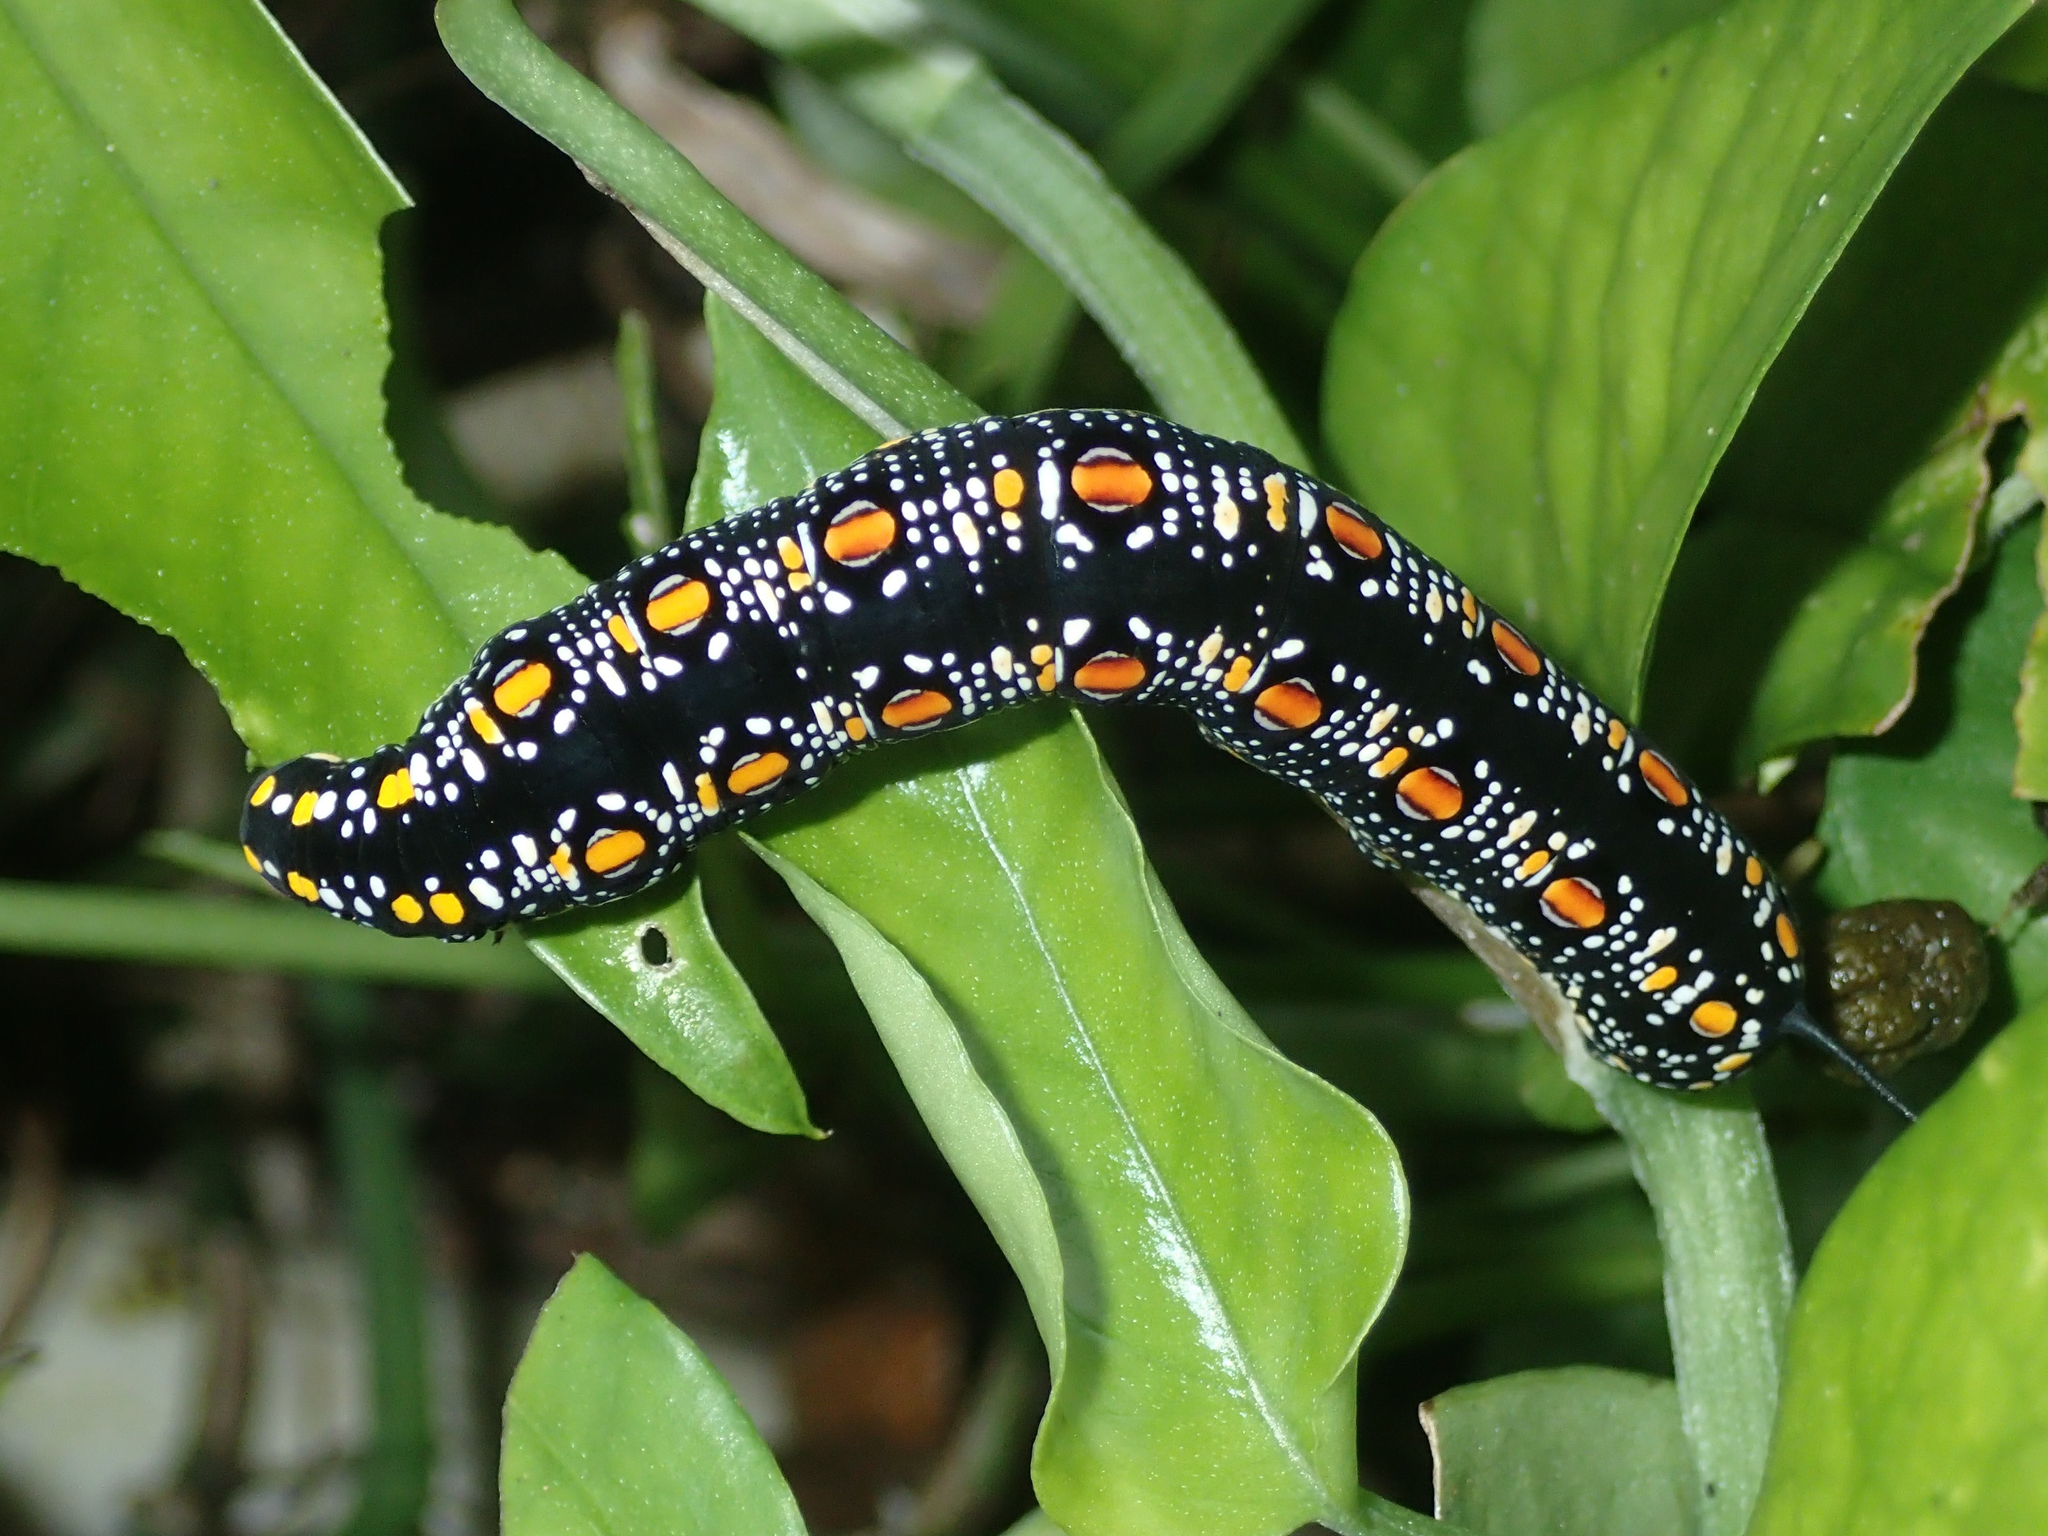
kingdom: Animalia
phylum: Arthropoda
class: Insecta
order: Lepidoptera
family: Sphingidae
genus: Theretra
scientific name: Theretra oldenlandiae
